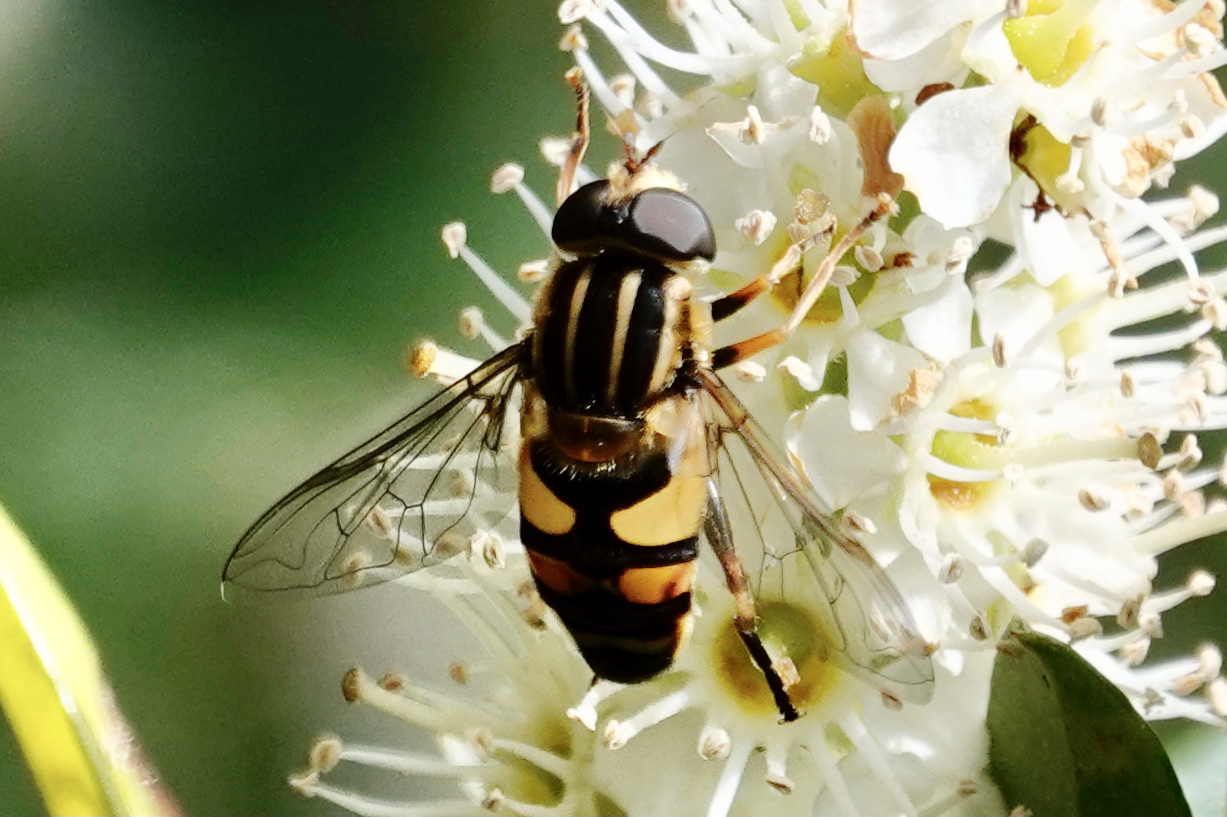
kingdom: Animalia
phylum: Arthropoda
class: Insecta
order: Diptera
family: Syrphidae
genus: Helophilus
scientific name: Helophilus fasciatus
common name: Narrow-headed marsh fly
